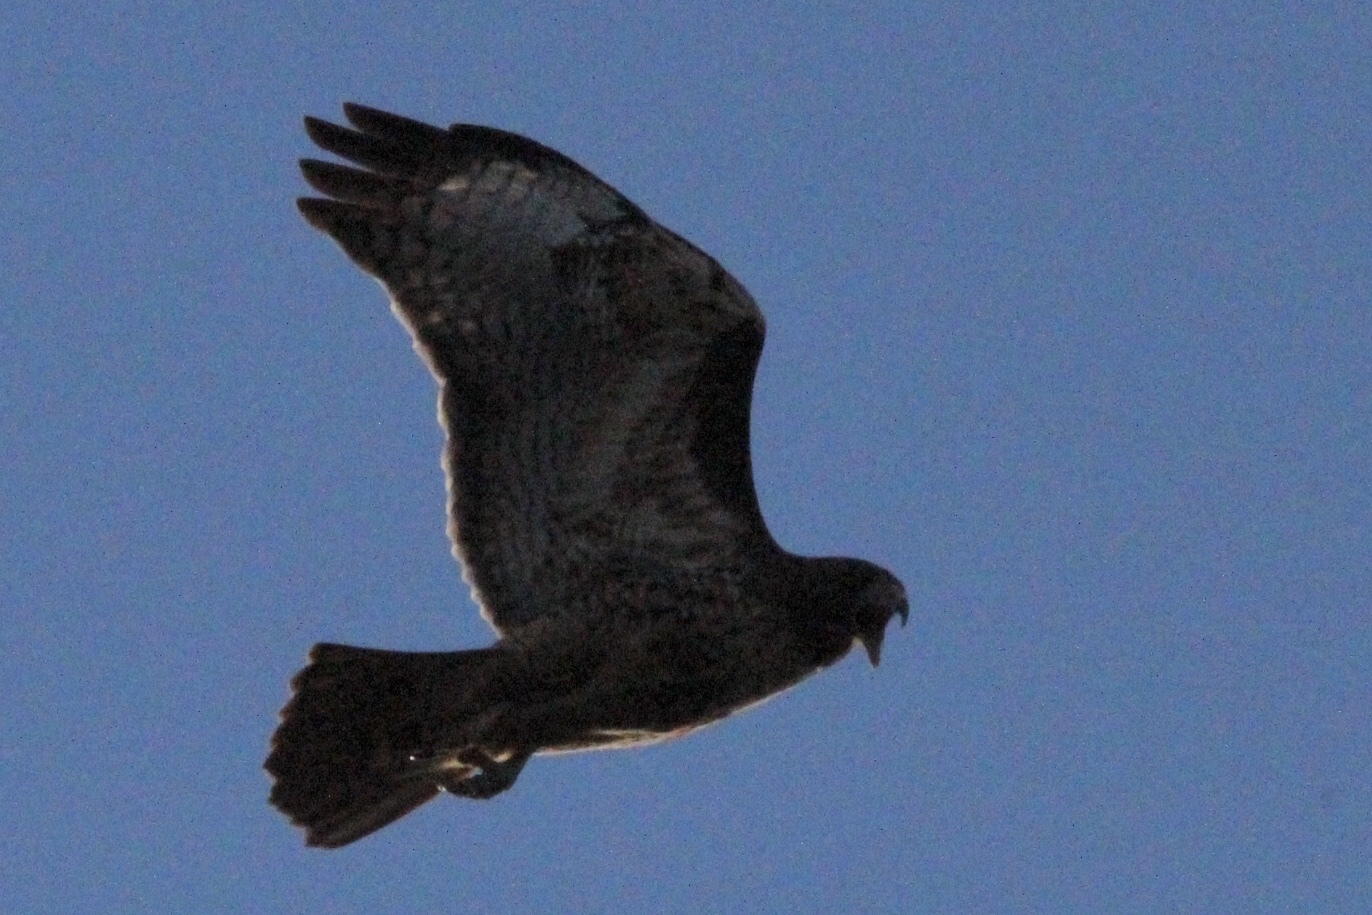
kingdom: Animalia
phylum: Chordata
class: Aves
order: Accipitriformes
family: Accipitridae
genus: Buteo
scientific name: Buteo jamaicensis
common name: Red-tailed hawk
